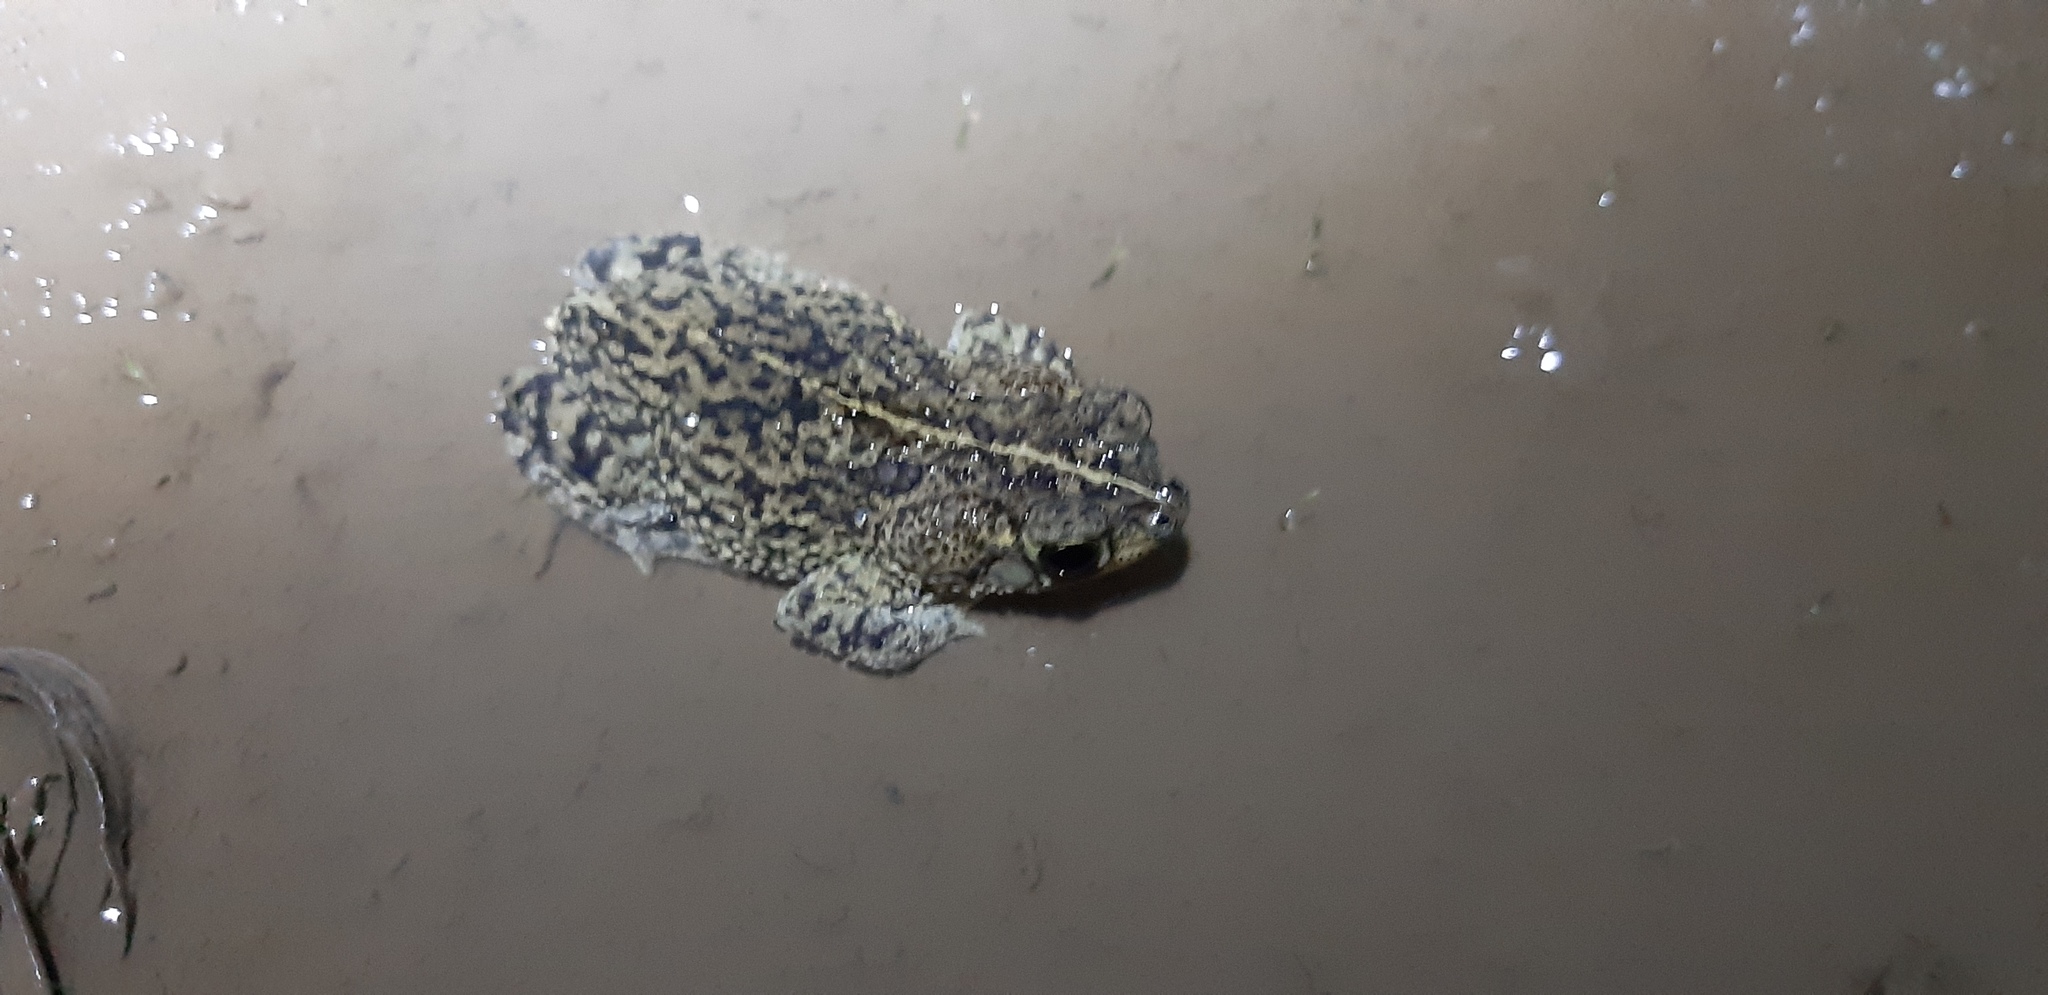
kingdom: Animalia
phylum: Chordata
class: Amphibia
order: Anura
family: Bufonidae
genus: Rhinella
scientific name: Rhinella major
